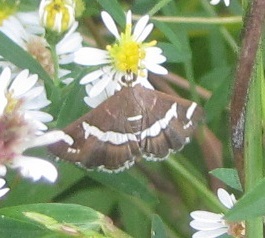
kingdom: Animalia
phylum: Arthropoda
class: Insecta
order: Lepidoptera
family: Crambidae
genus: Spoladea
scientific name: Spoladea recurvalis
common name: Beet webworm moth
